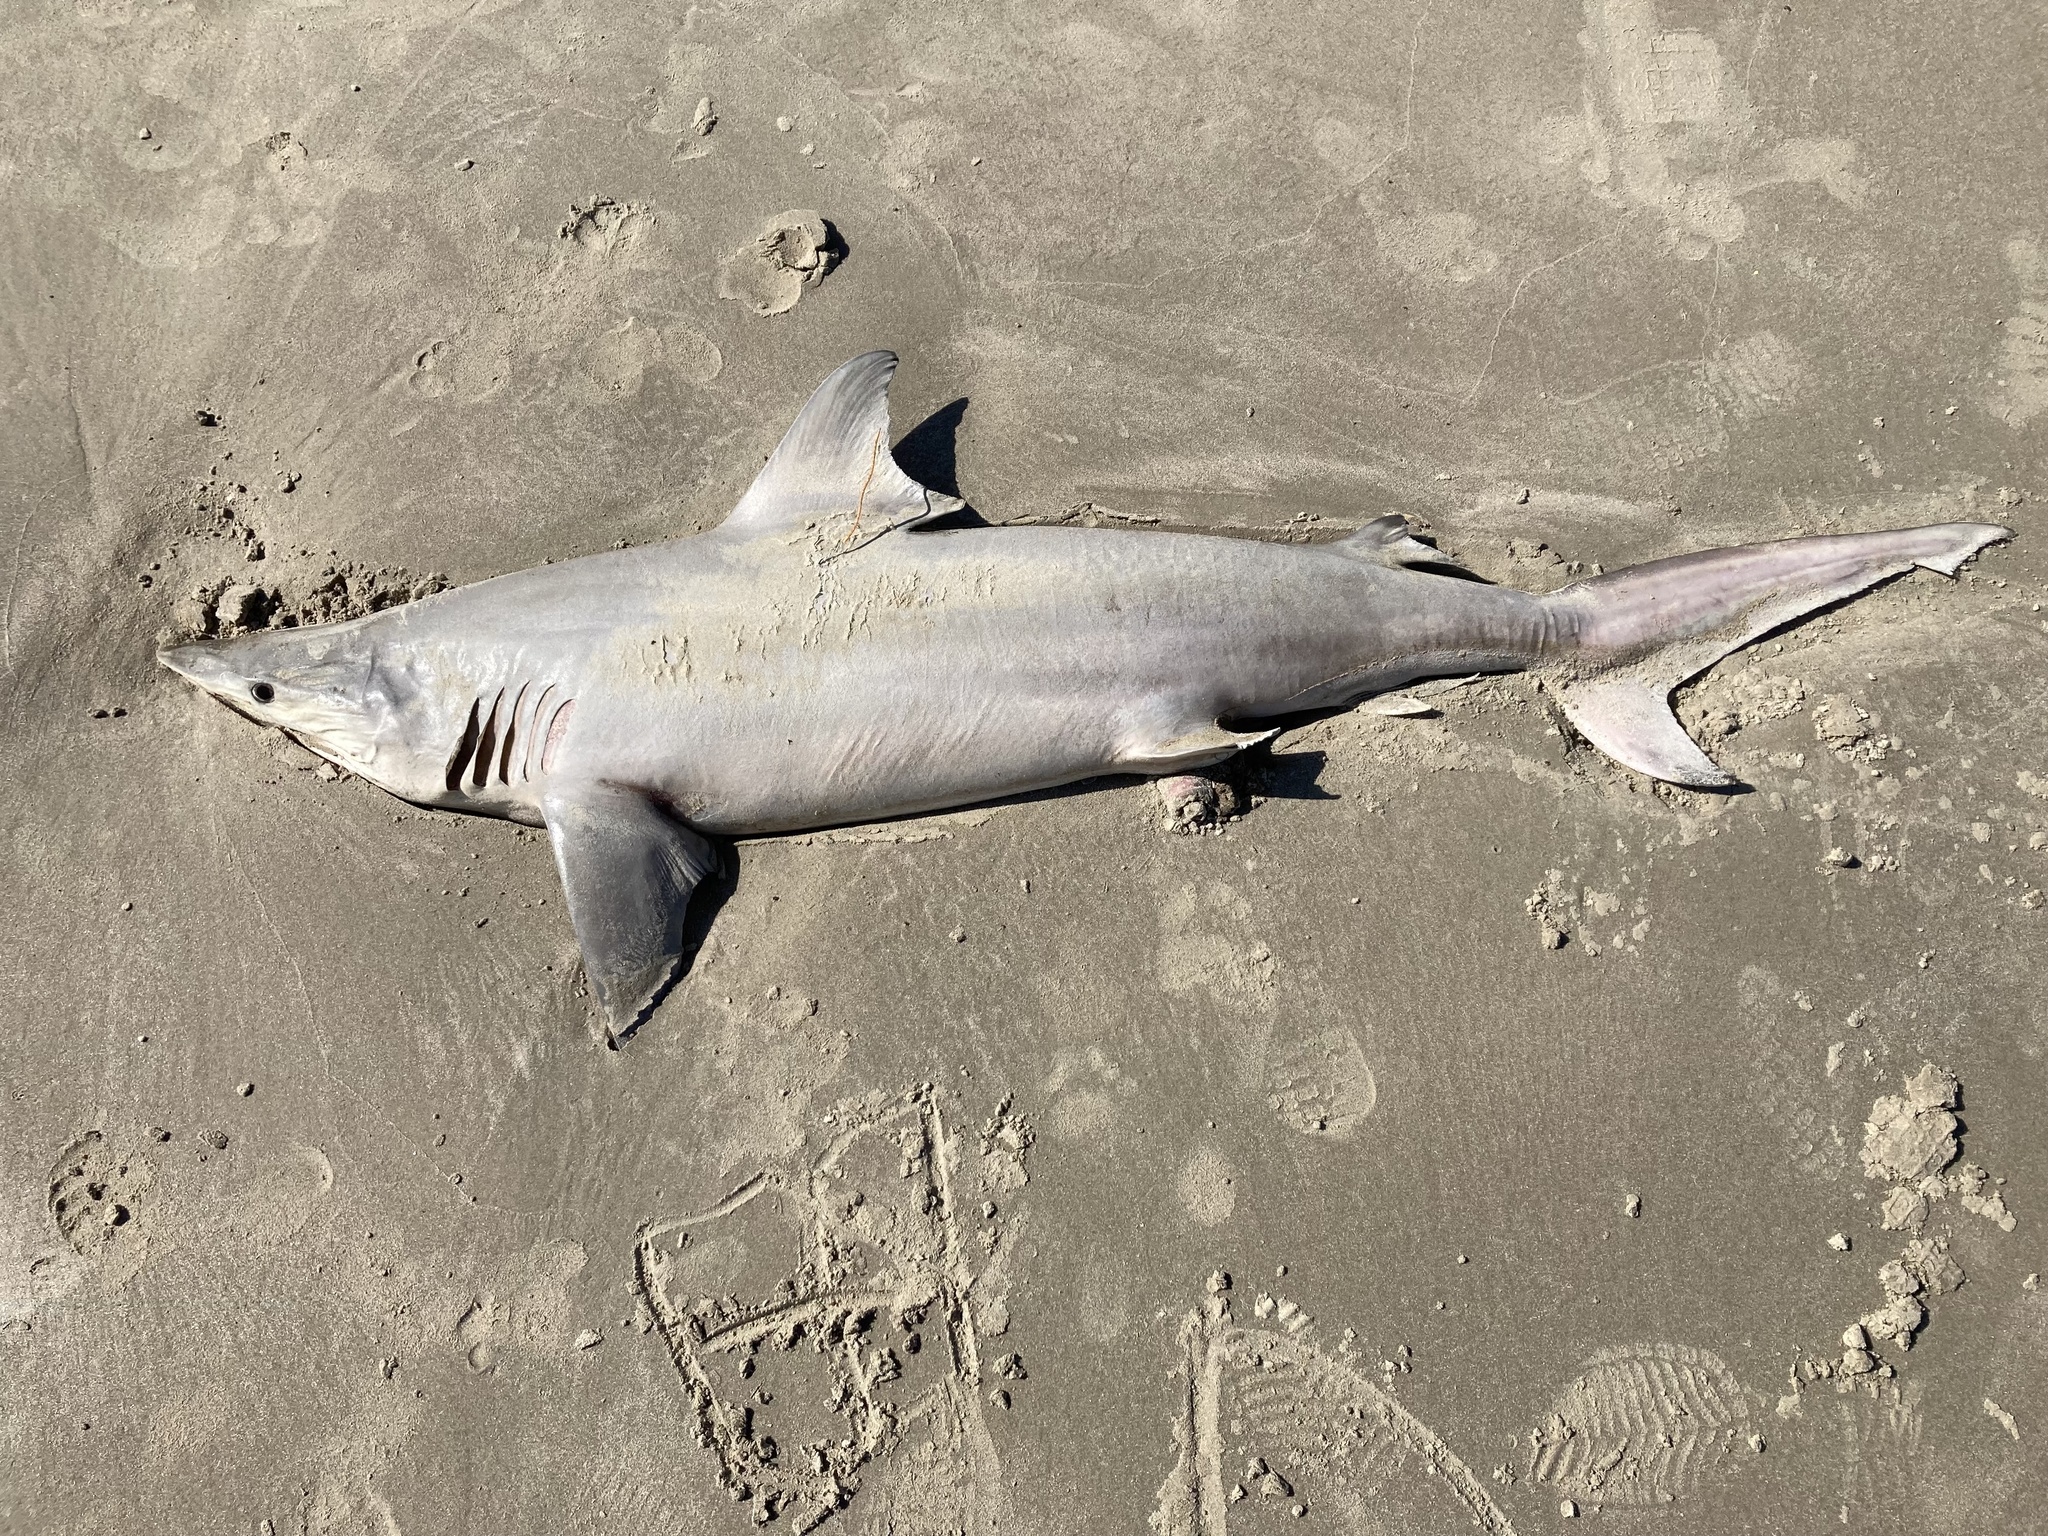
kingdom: Animalia
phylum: Chordata
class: Elasmobranchii
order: Carcharhiniformes
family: Carcharhinidae
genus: Carcharhinus
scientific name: Carcharhinus limbatus
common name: Blacktip shark
